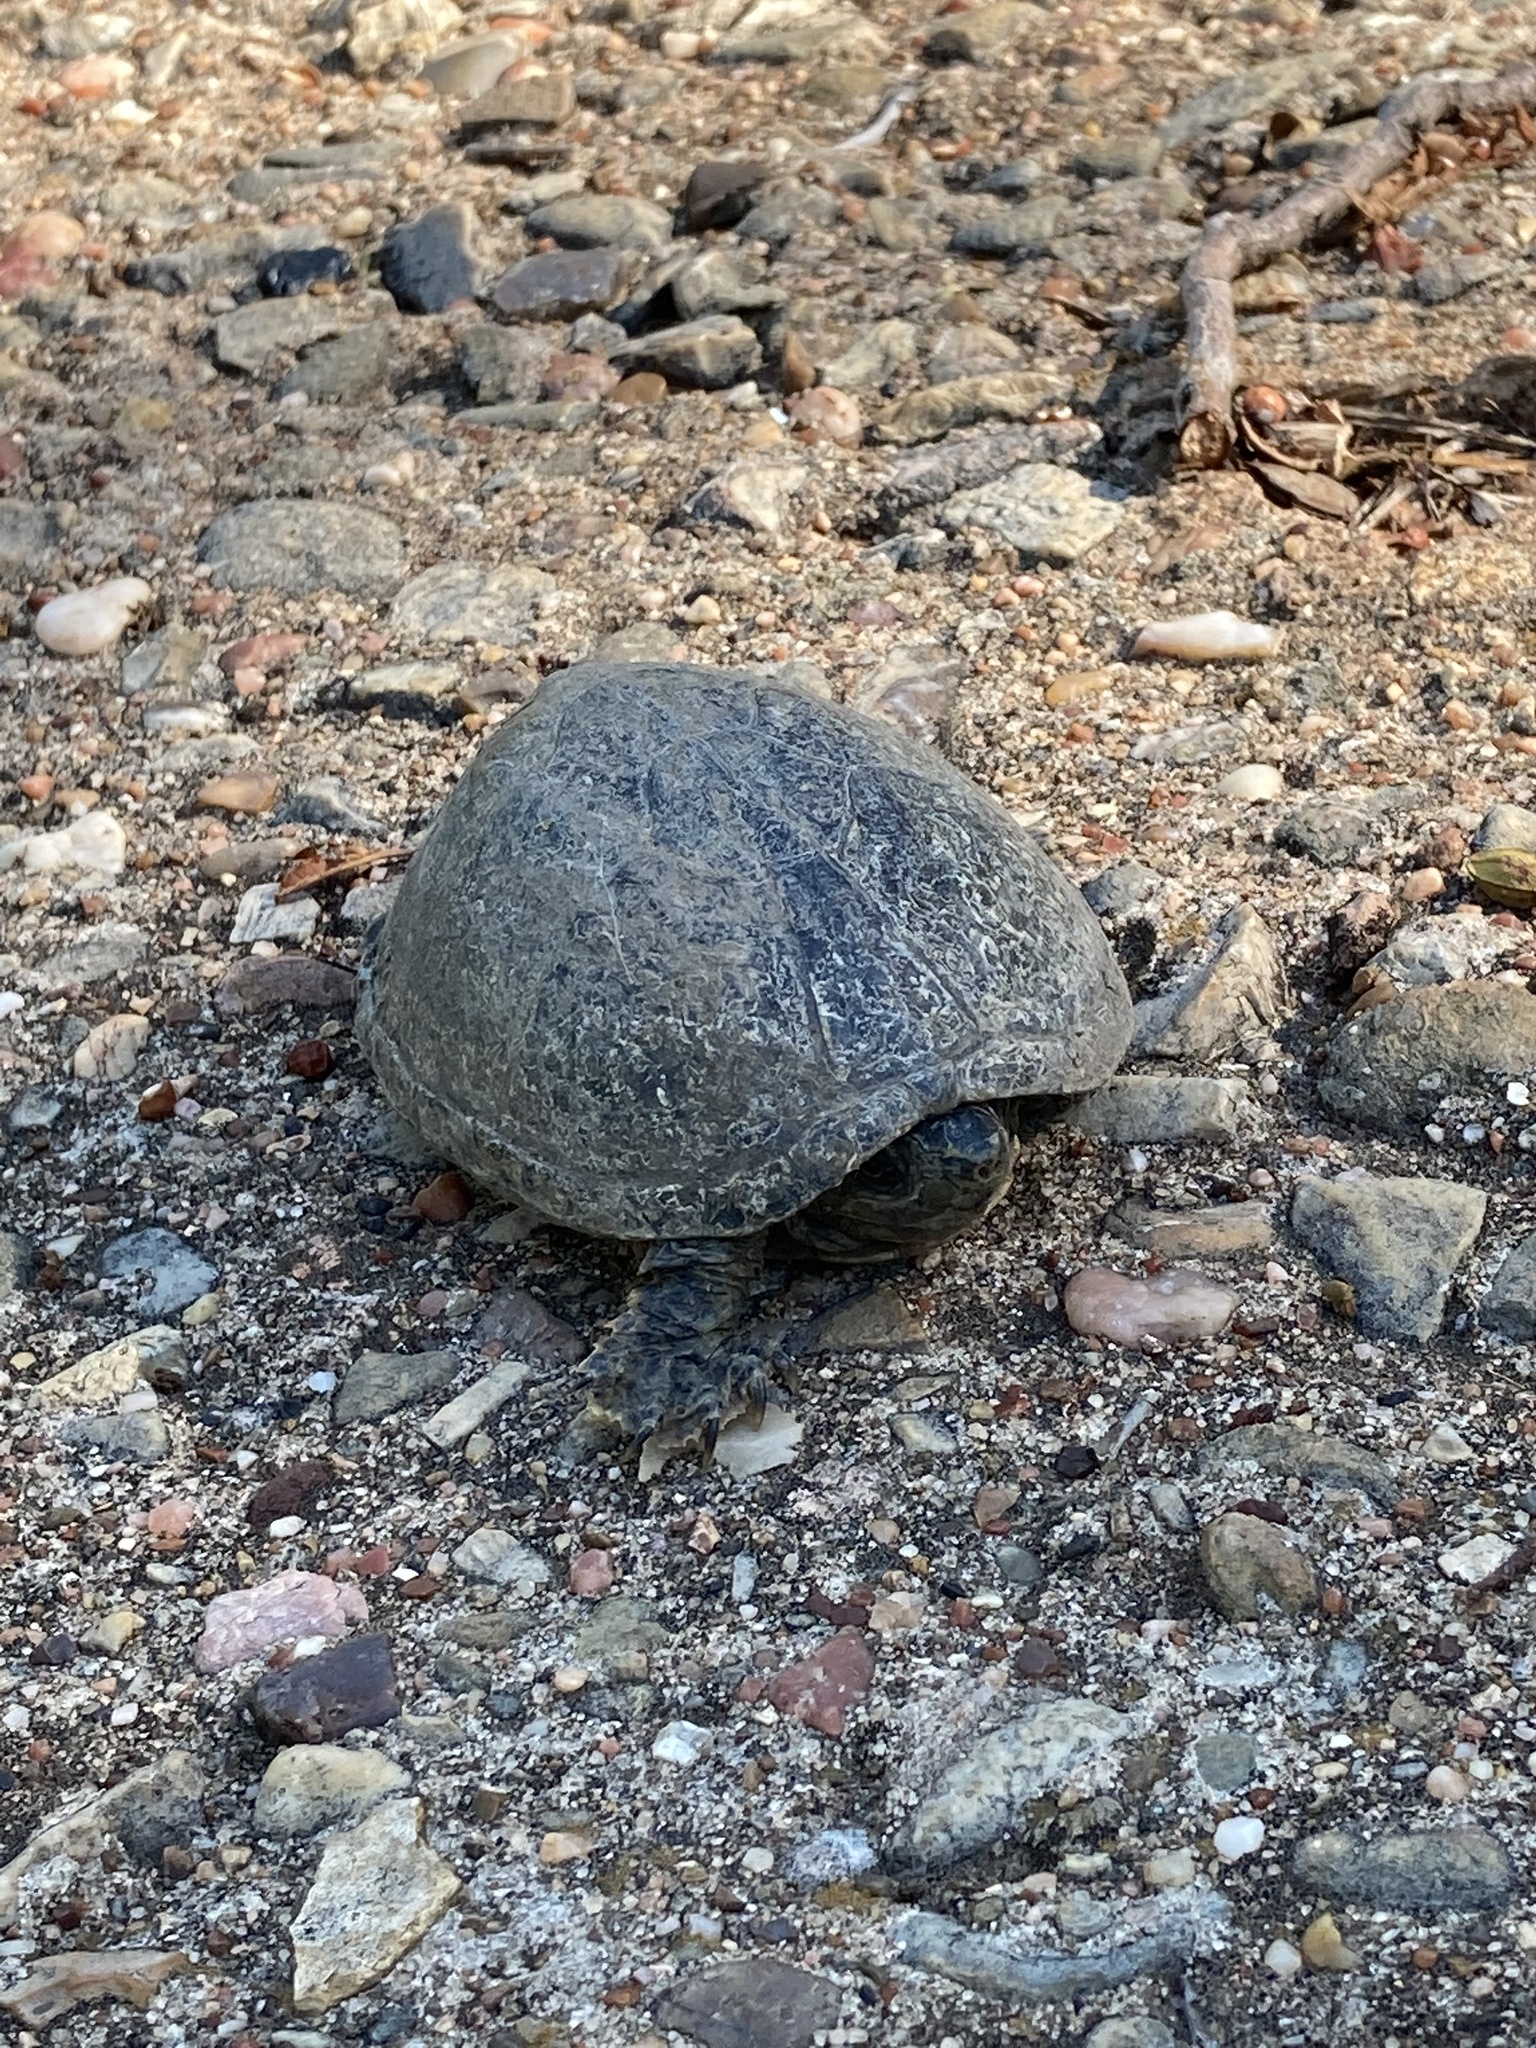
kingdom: Animalia
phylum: Chordata
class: Testudines
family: Kinosternidae
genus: Sternotherus
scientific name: Sternotherus odoratus
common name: Common musk turtle
